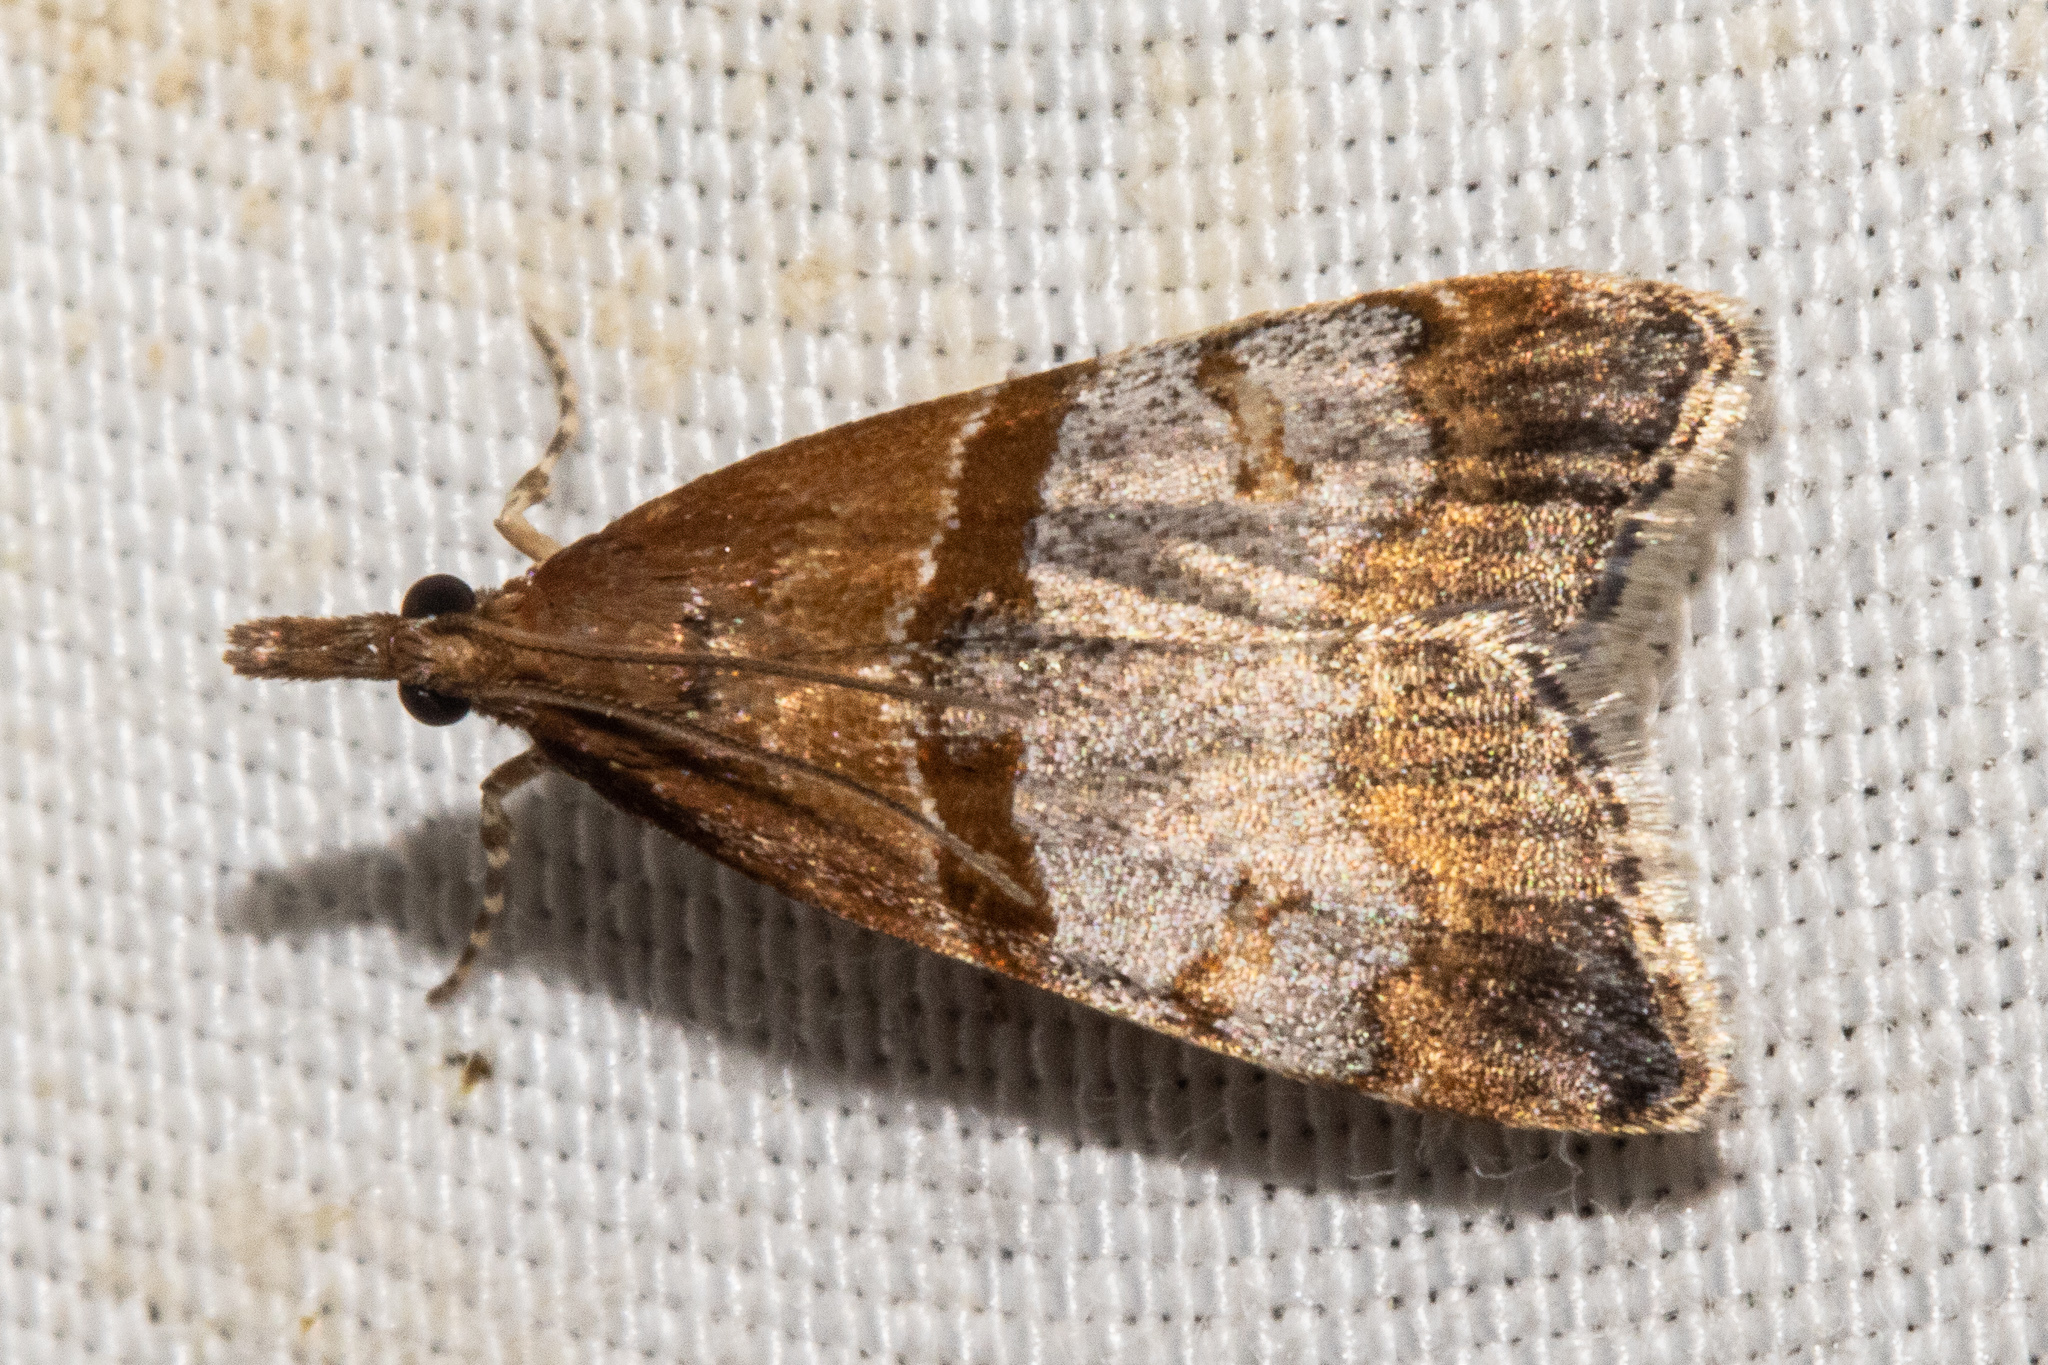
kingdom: Animalia
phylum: Arthropoda
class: Insecta
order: Lepidoptera
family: Crambidae
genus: Antiscopa
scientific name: Antiscopa epicomia
